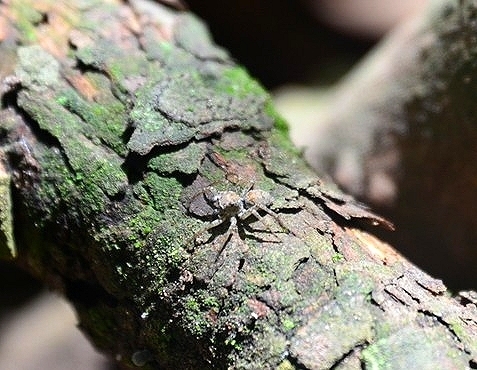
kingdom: Animalia
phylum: Arthropoda
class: Arachnida
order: Araneae
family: Salticidae
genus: Saitis
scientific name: Saitis variegatus
